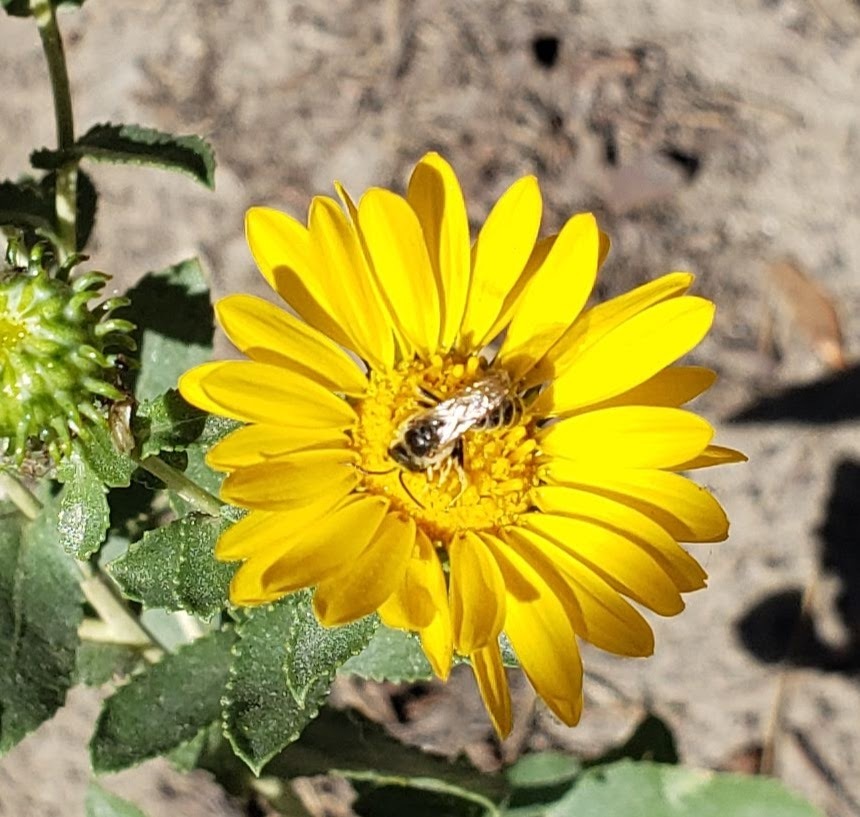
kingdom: Animalia
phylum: Arthropoda
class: Insecta
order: Hymenoptera
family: Halictidae
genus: Halictus
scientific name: Halictus ligatus
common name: Ligated furrow bee
